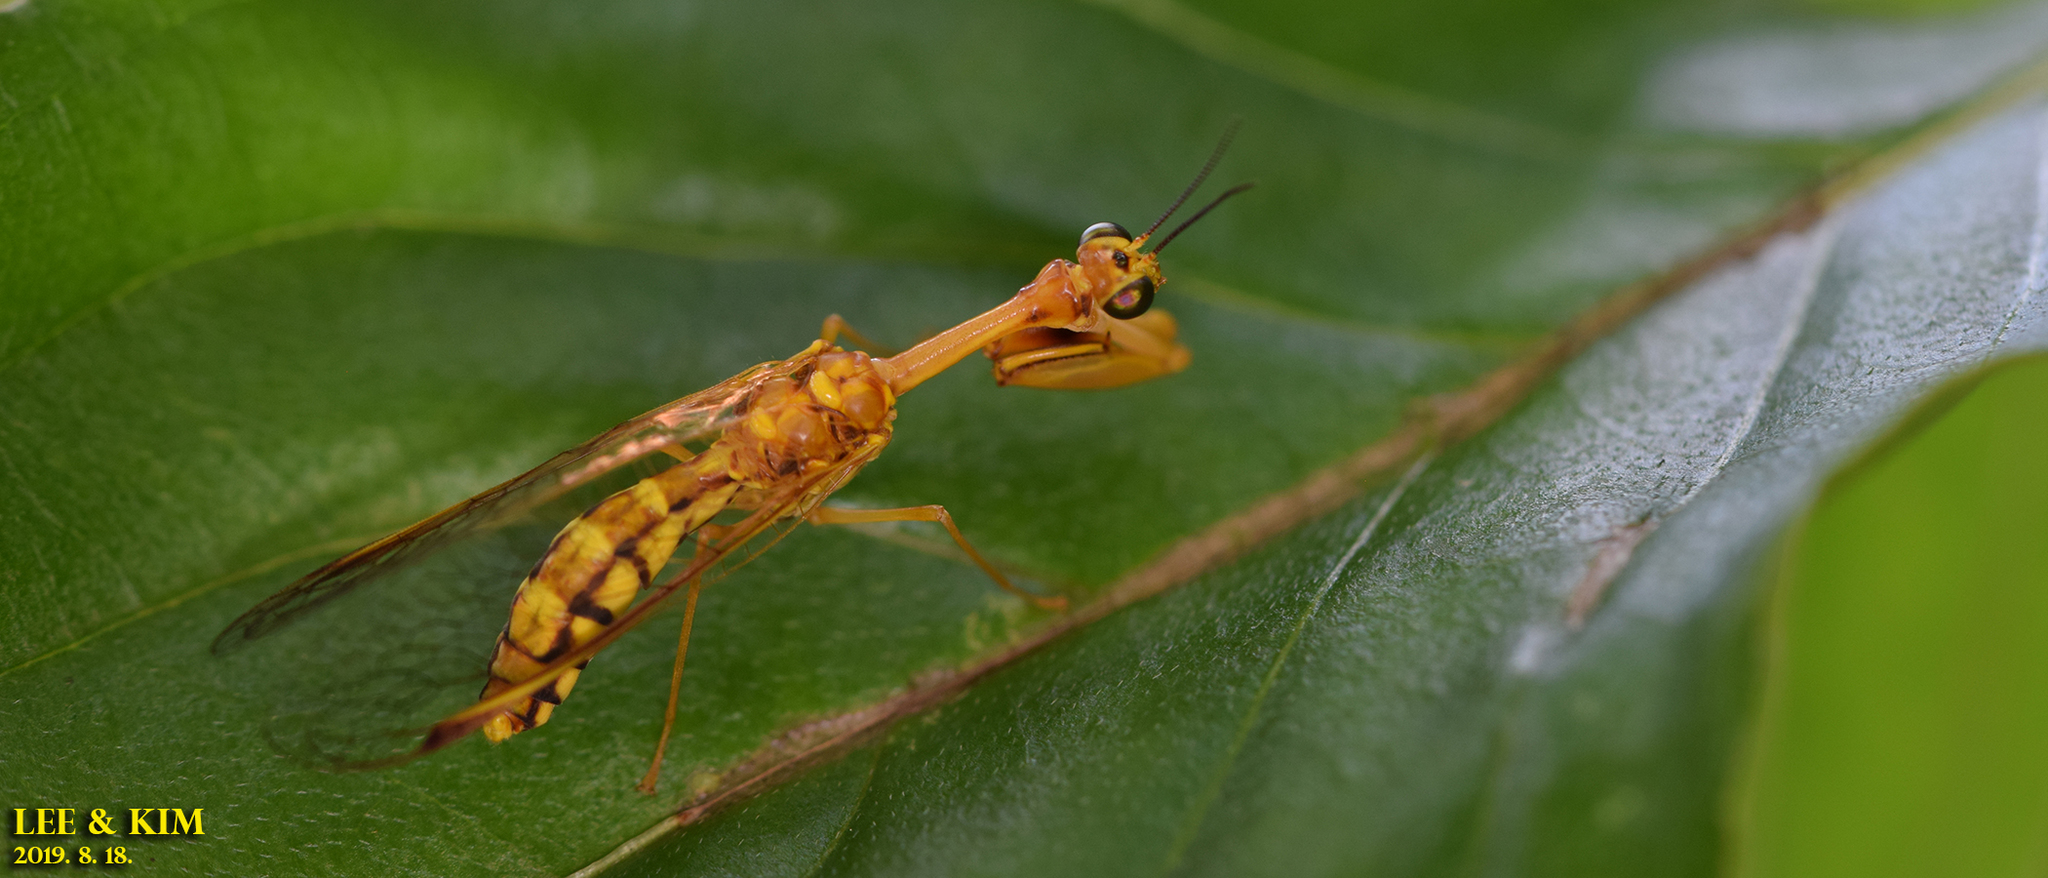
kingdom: Animalia
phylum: Arthropoda
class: Insecta
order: Neuroptera
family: Mantispidae
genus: Eumantispa
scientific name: Eumantispa harmandi
